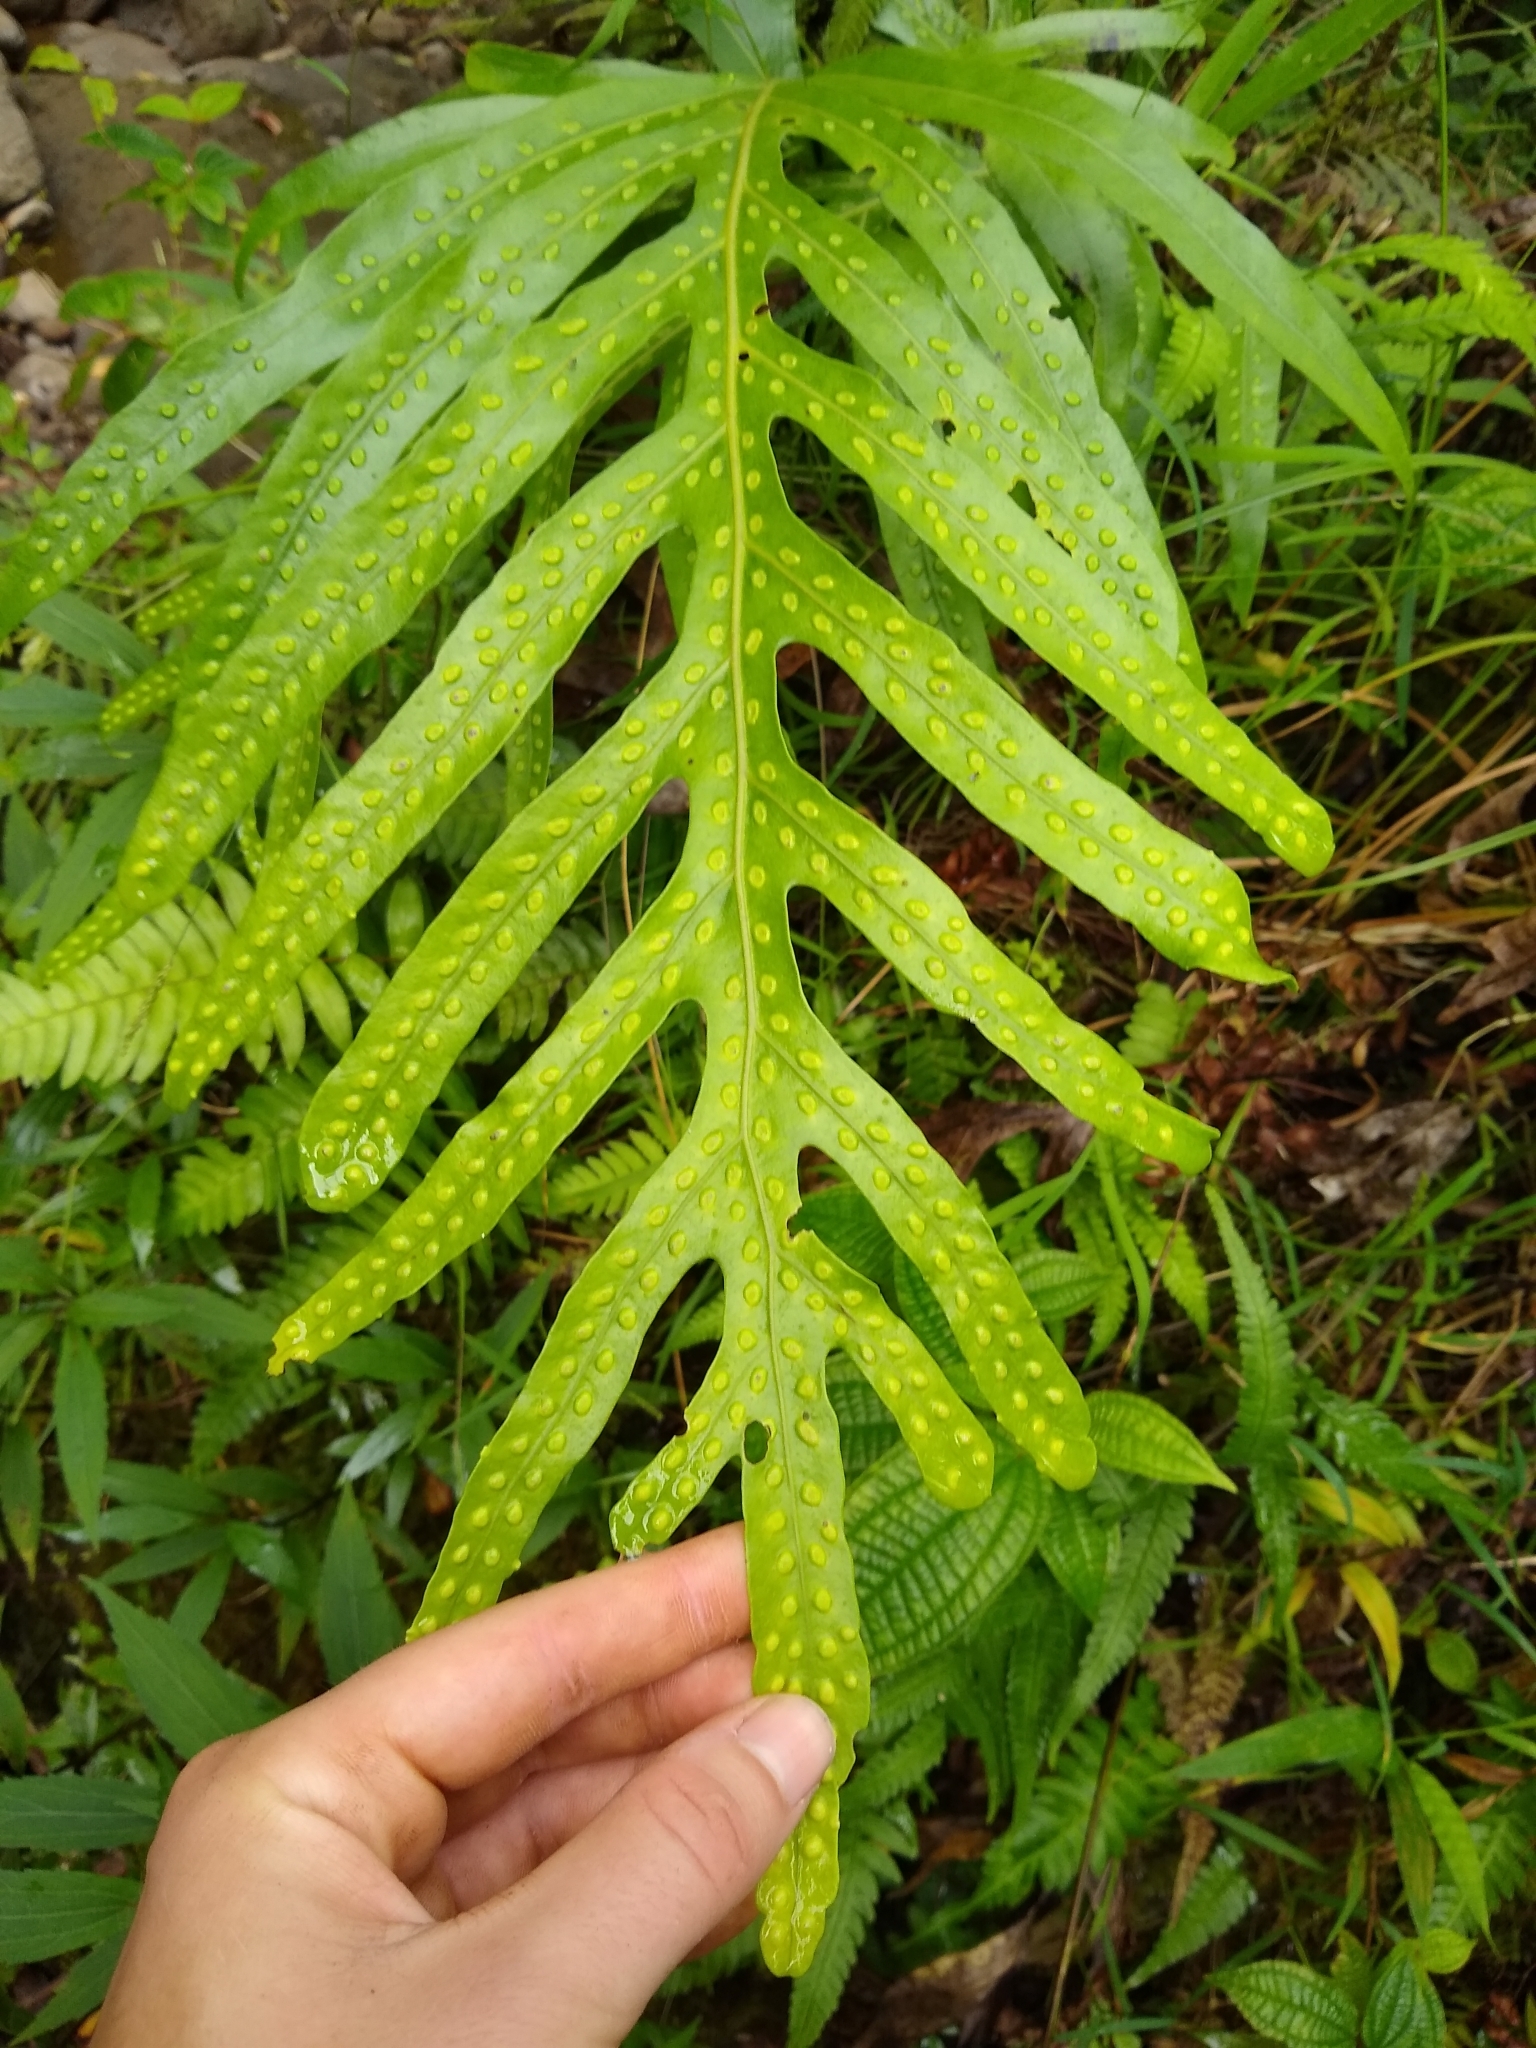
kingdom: Plantae
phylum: Tracheophyta
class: Polypodiopsida
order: Polypodiales
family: Polypodiaceae
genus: Microsorum
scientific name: Microsorum grossum
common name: Musk fern
